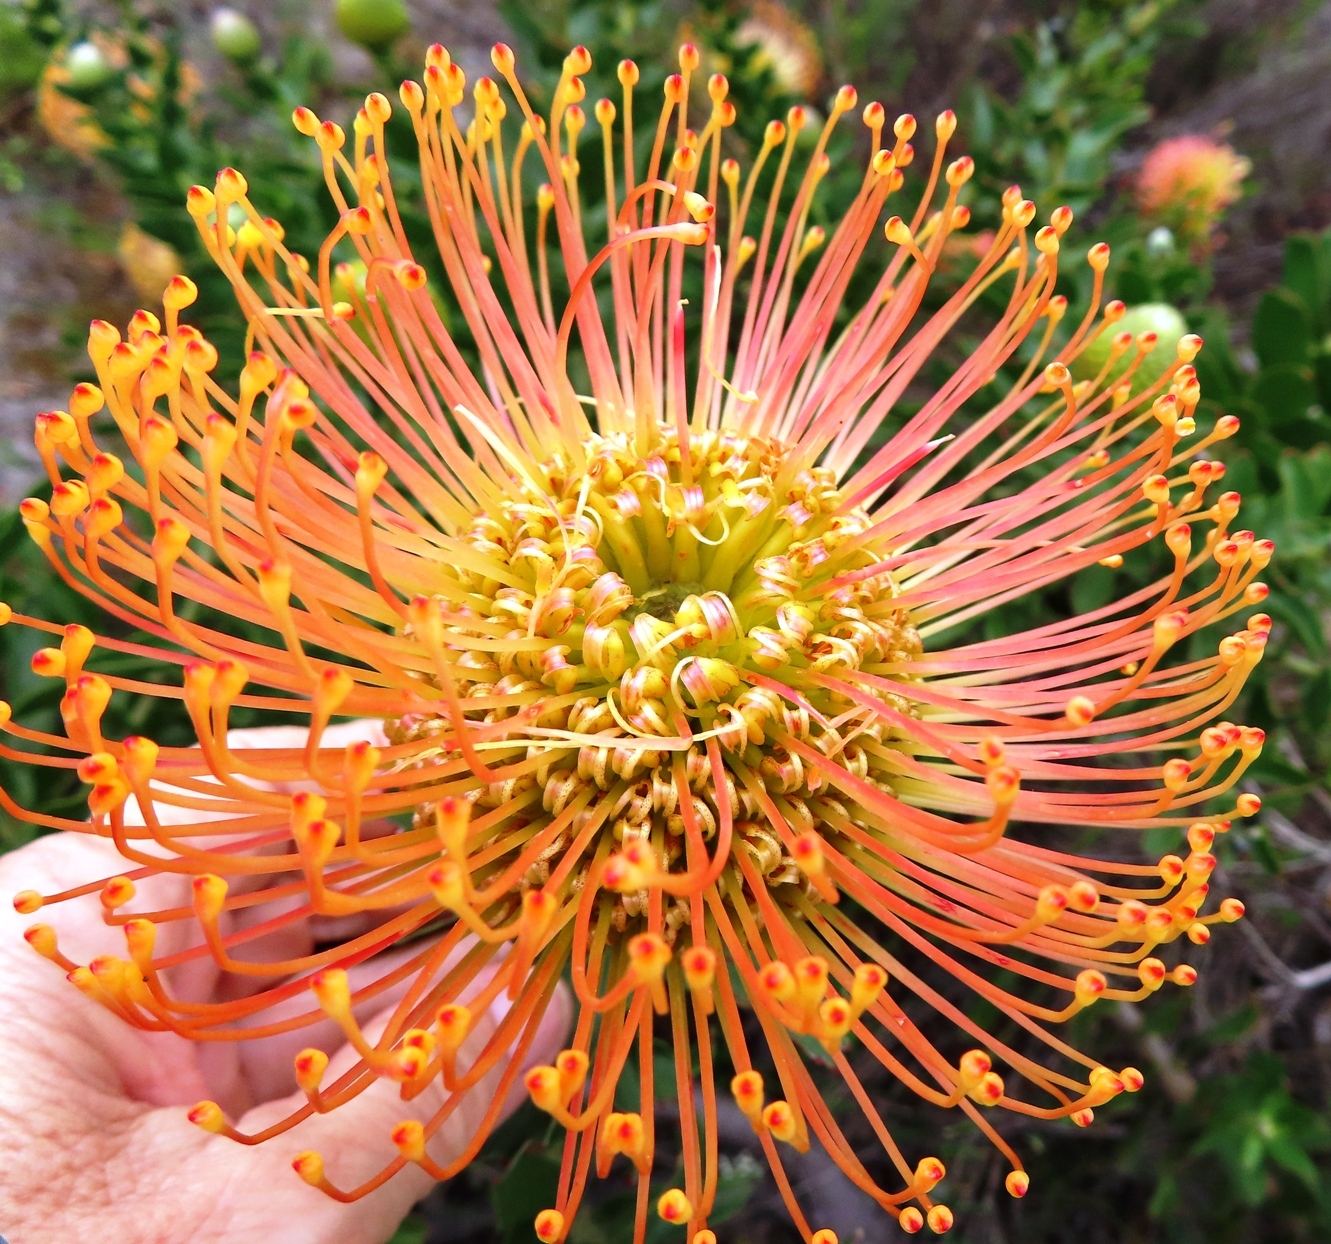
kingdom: Plantae
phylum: Tracheophyta
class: Magnoliopsida
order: Proteales
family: Proteaceae
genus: Leucospermum
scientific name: Leucospermum cordifolium
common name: Red pincushion-protea
